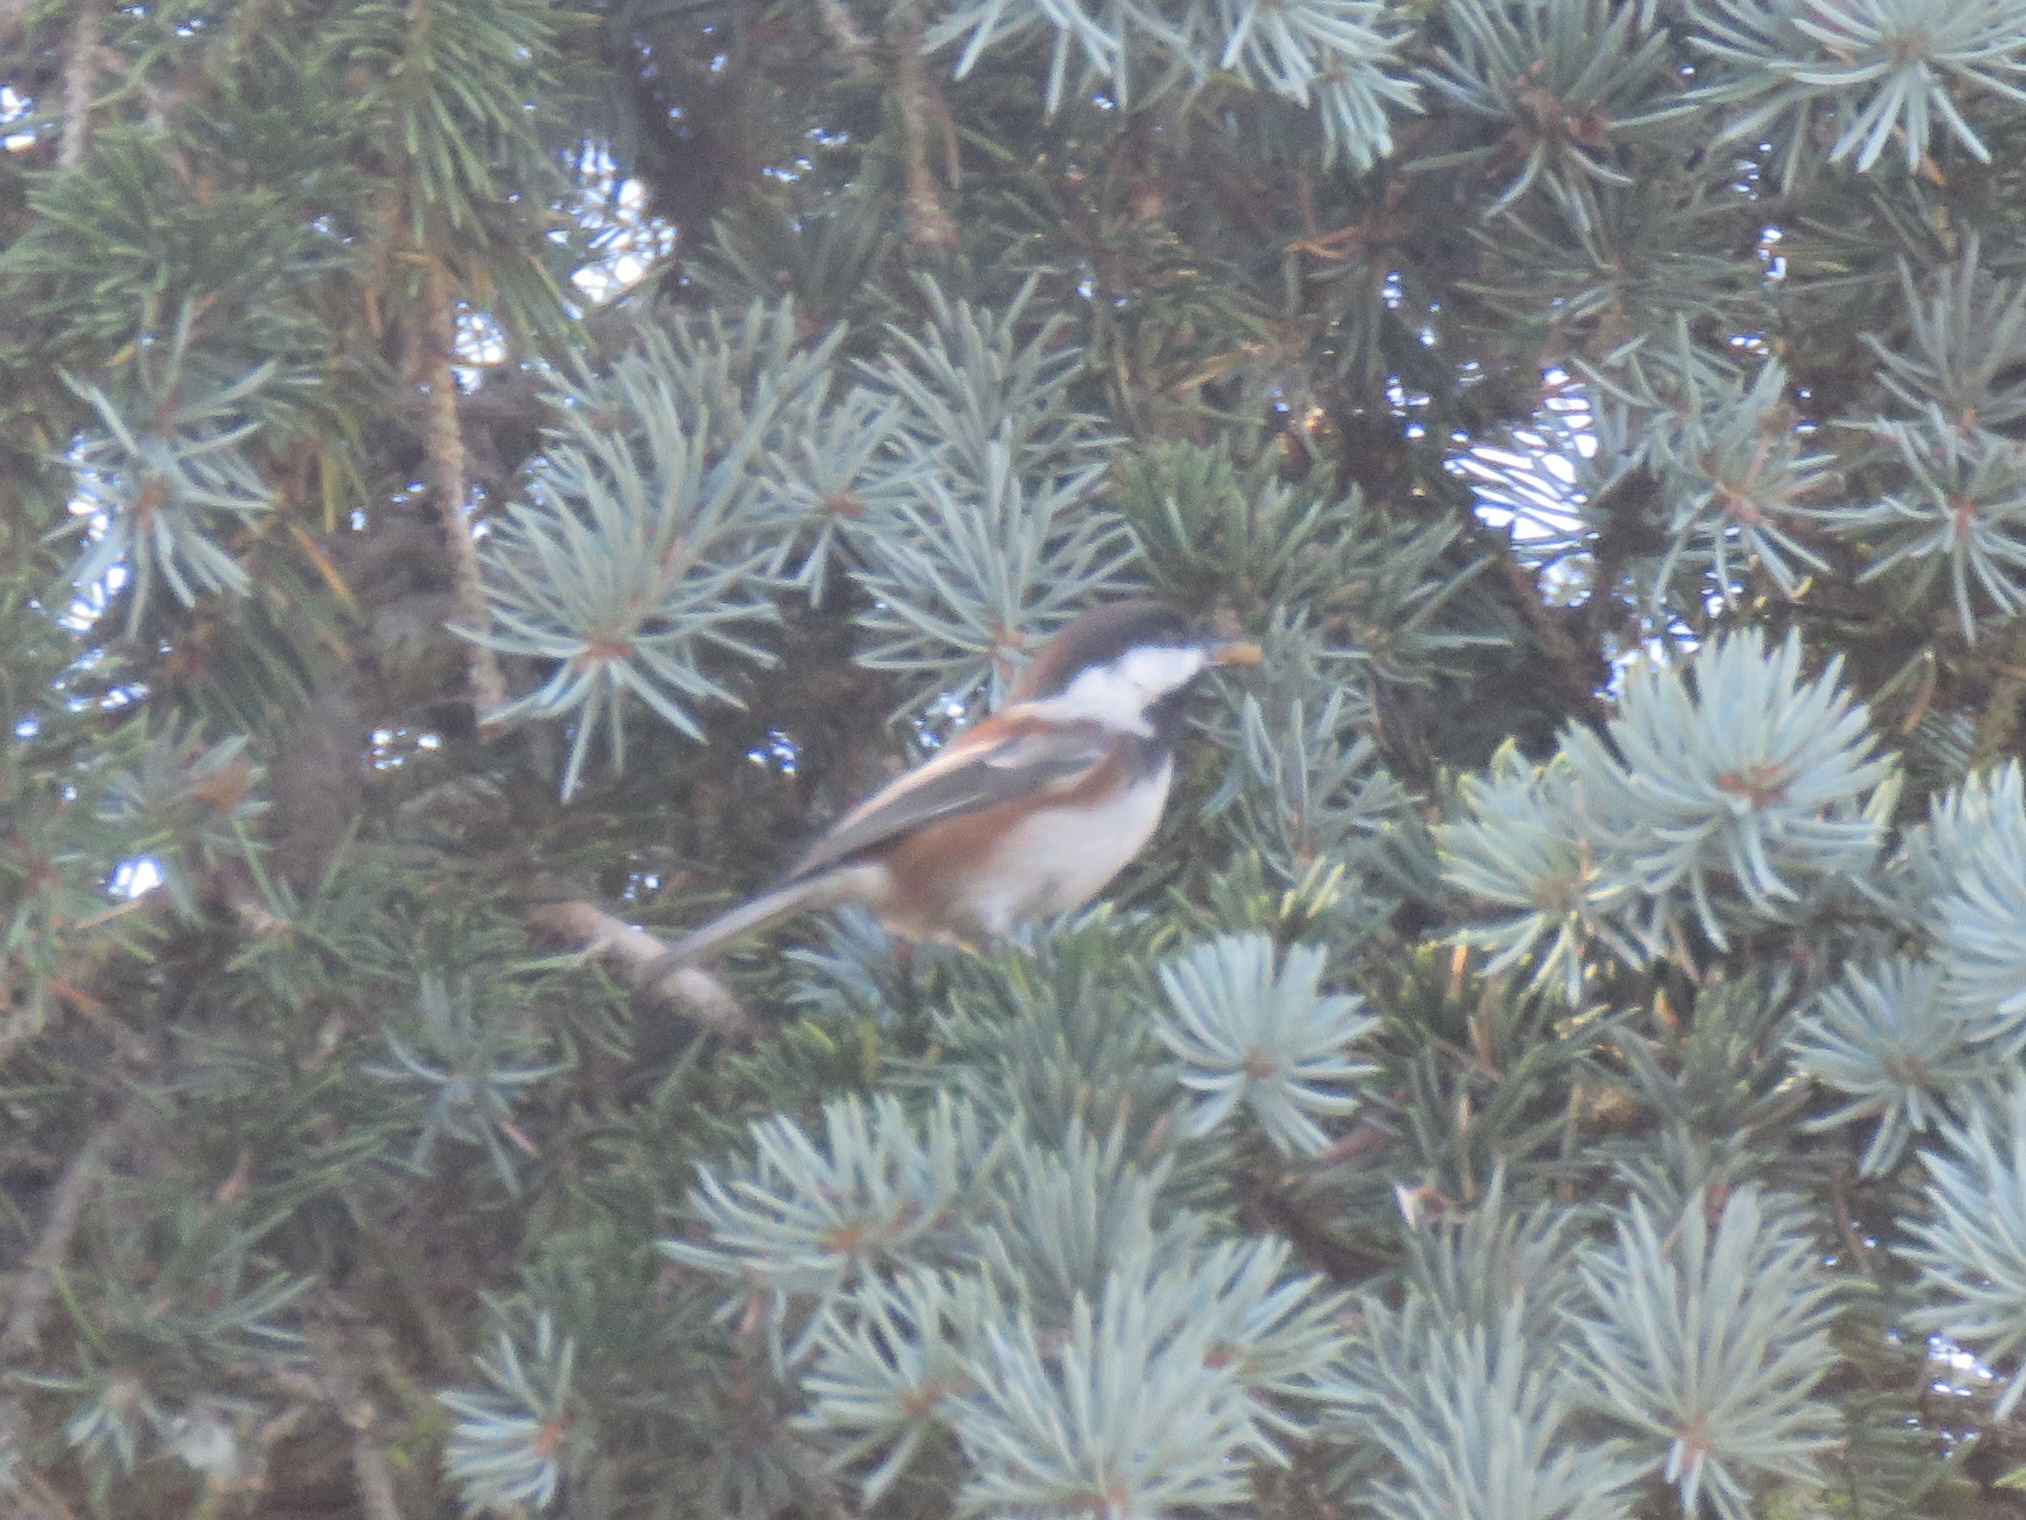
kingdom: Animalia
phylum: Chordata
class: Aves
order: Passeriformes
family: Paridae
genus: Poecile
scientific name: Poecile rufescens
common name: Chestnut-backed chickadee
